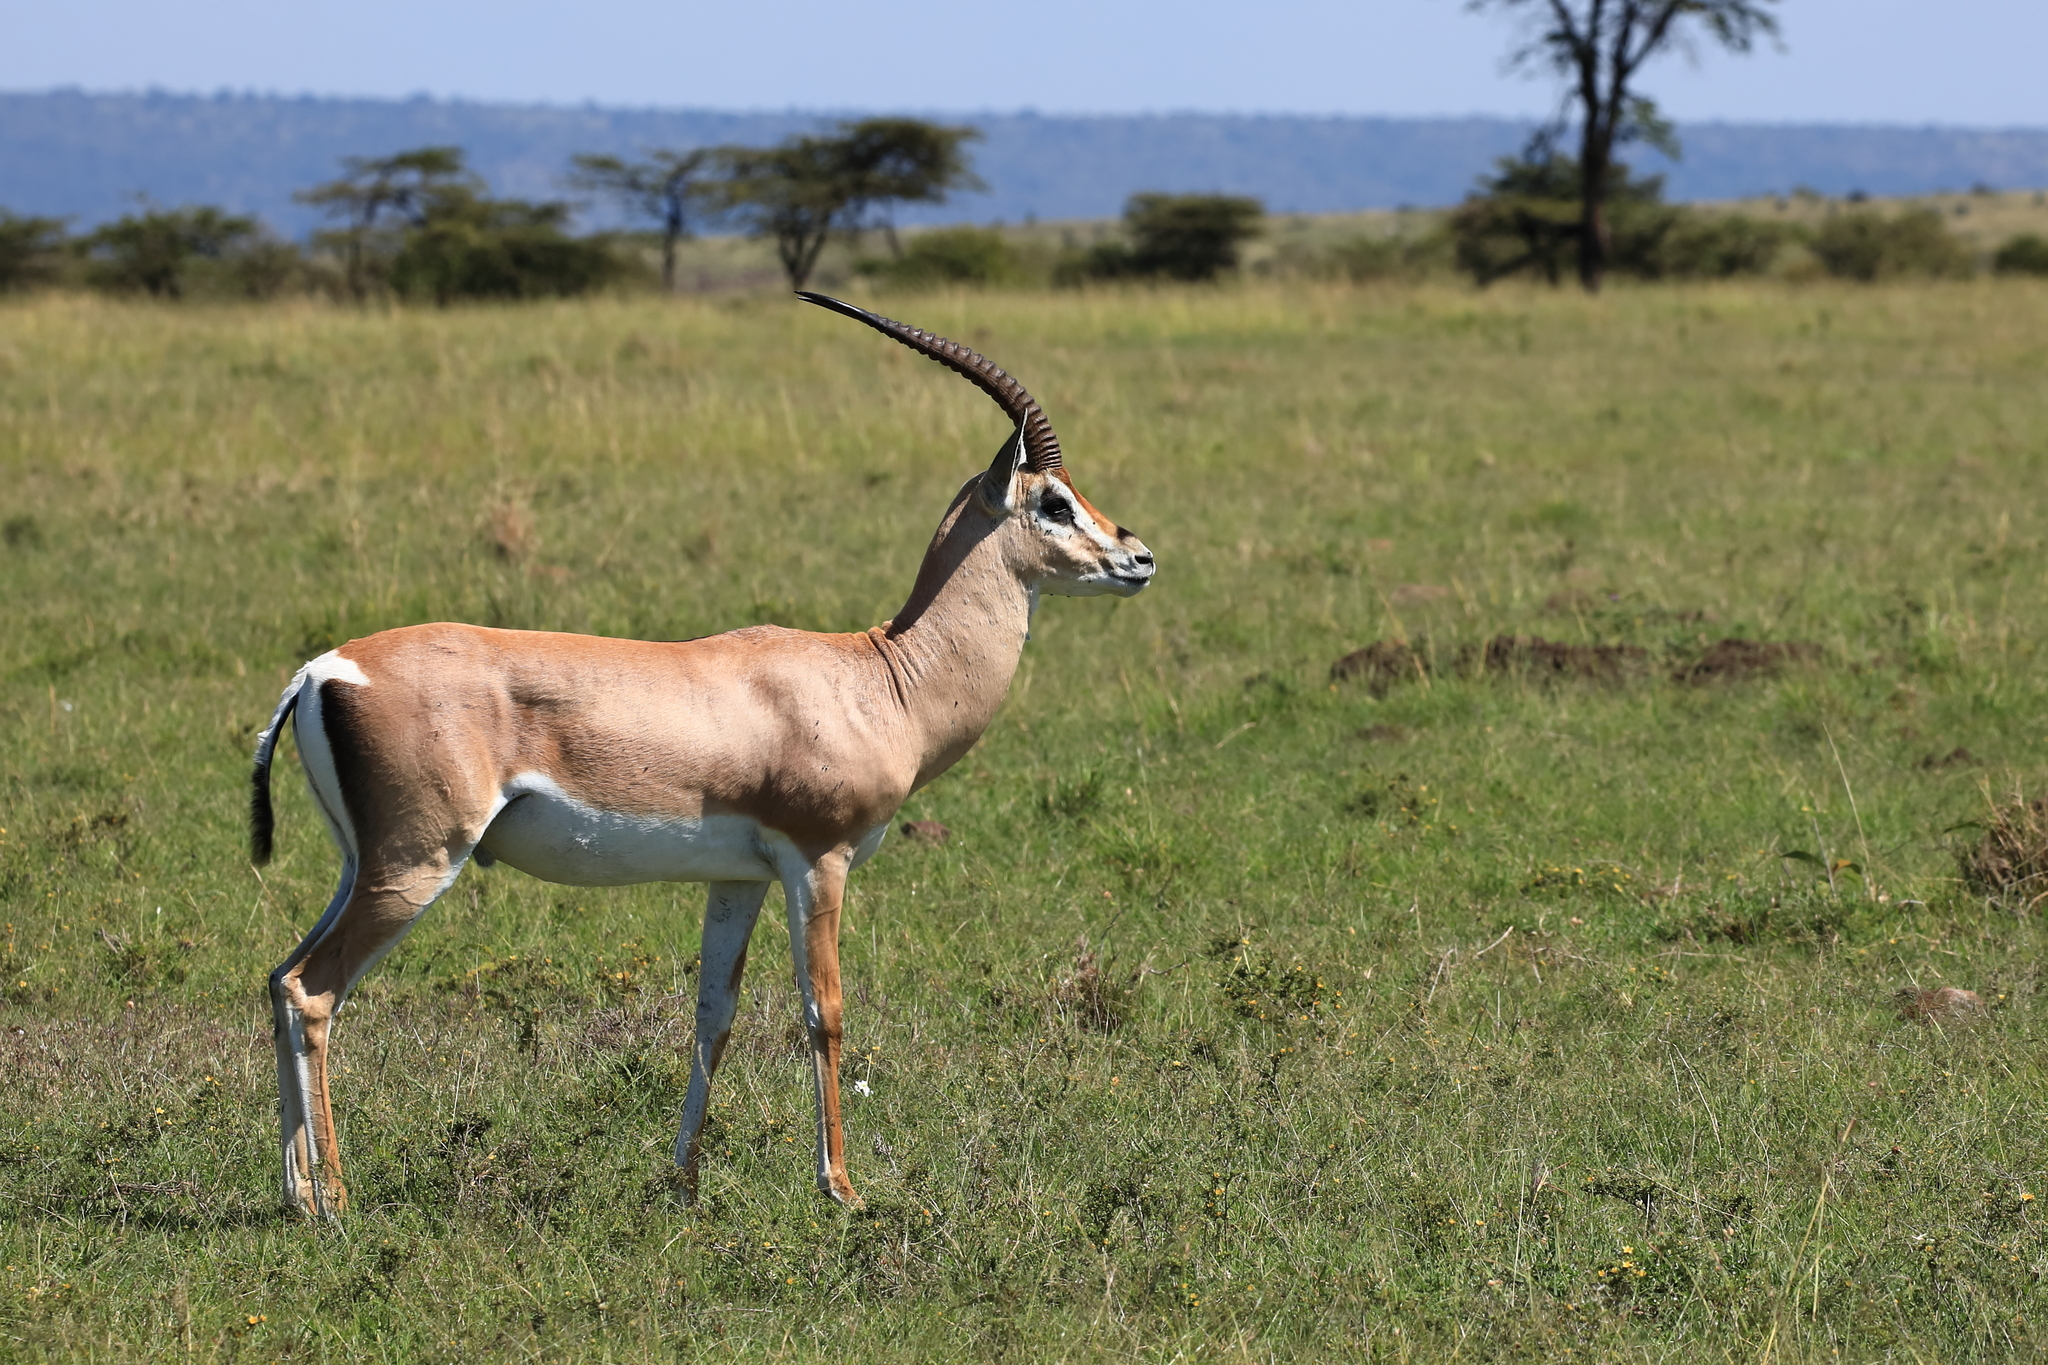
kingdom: Animalia
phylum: Chordata
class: Mammalia
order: Artiodactyla
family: Bovidae
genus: Nanger
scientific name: Nanger granti
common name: Grant's gazelle
